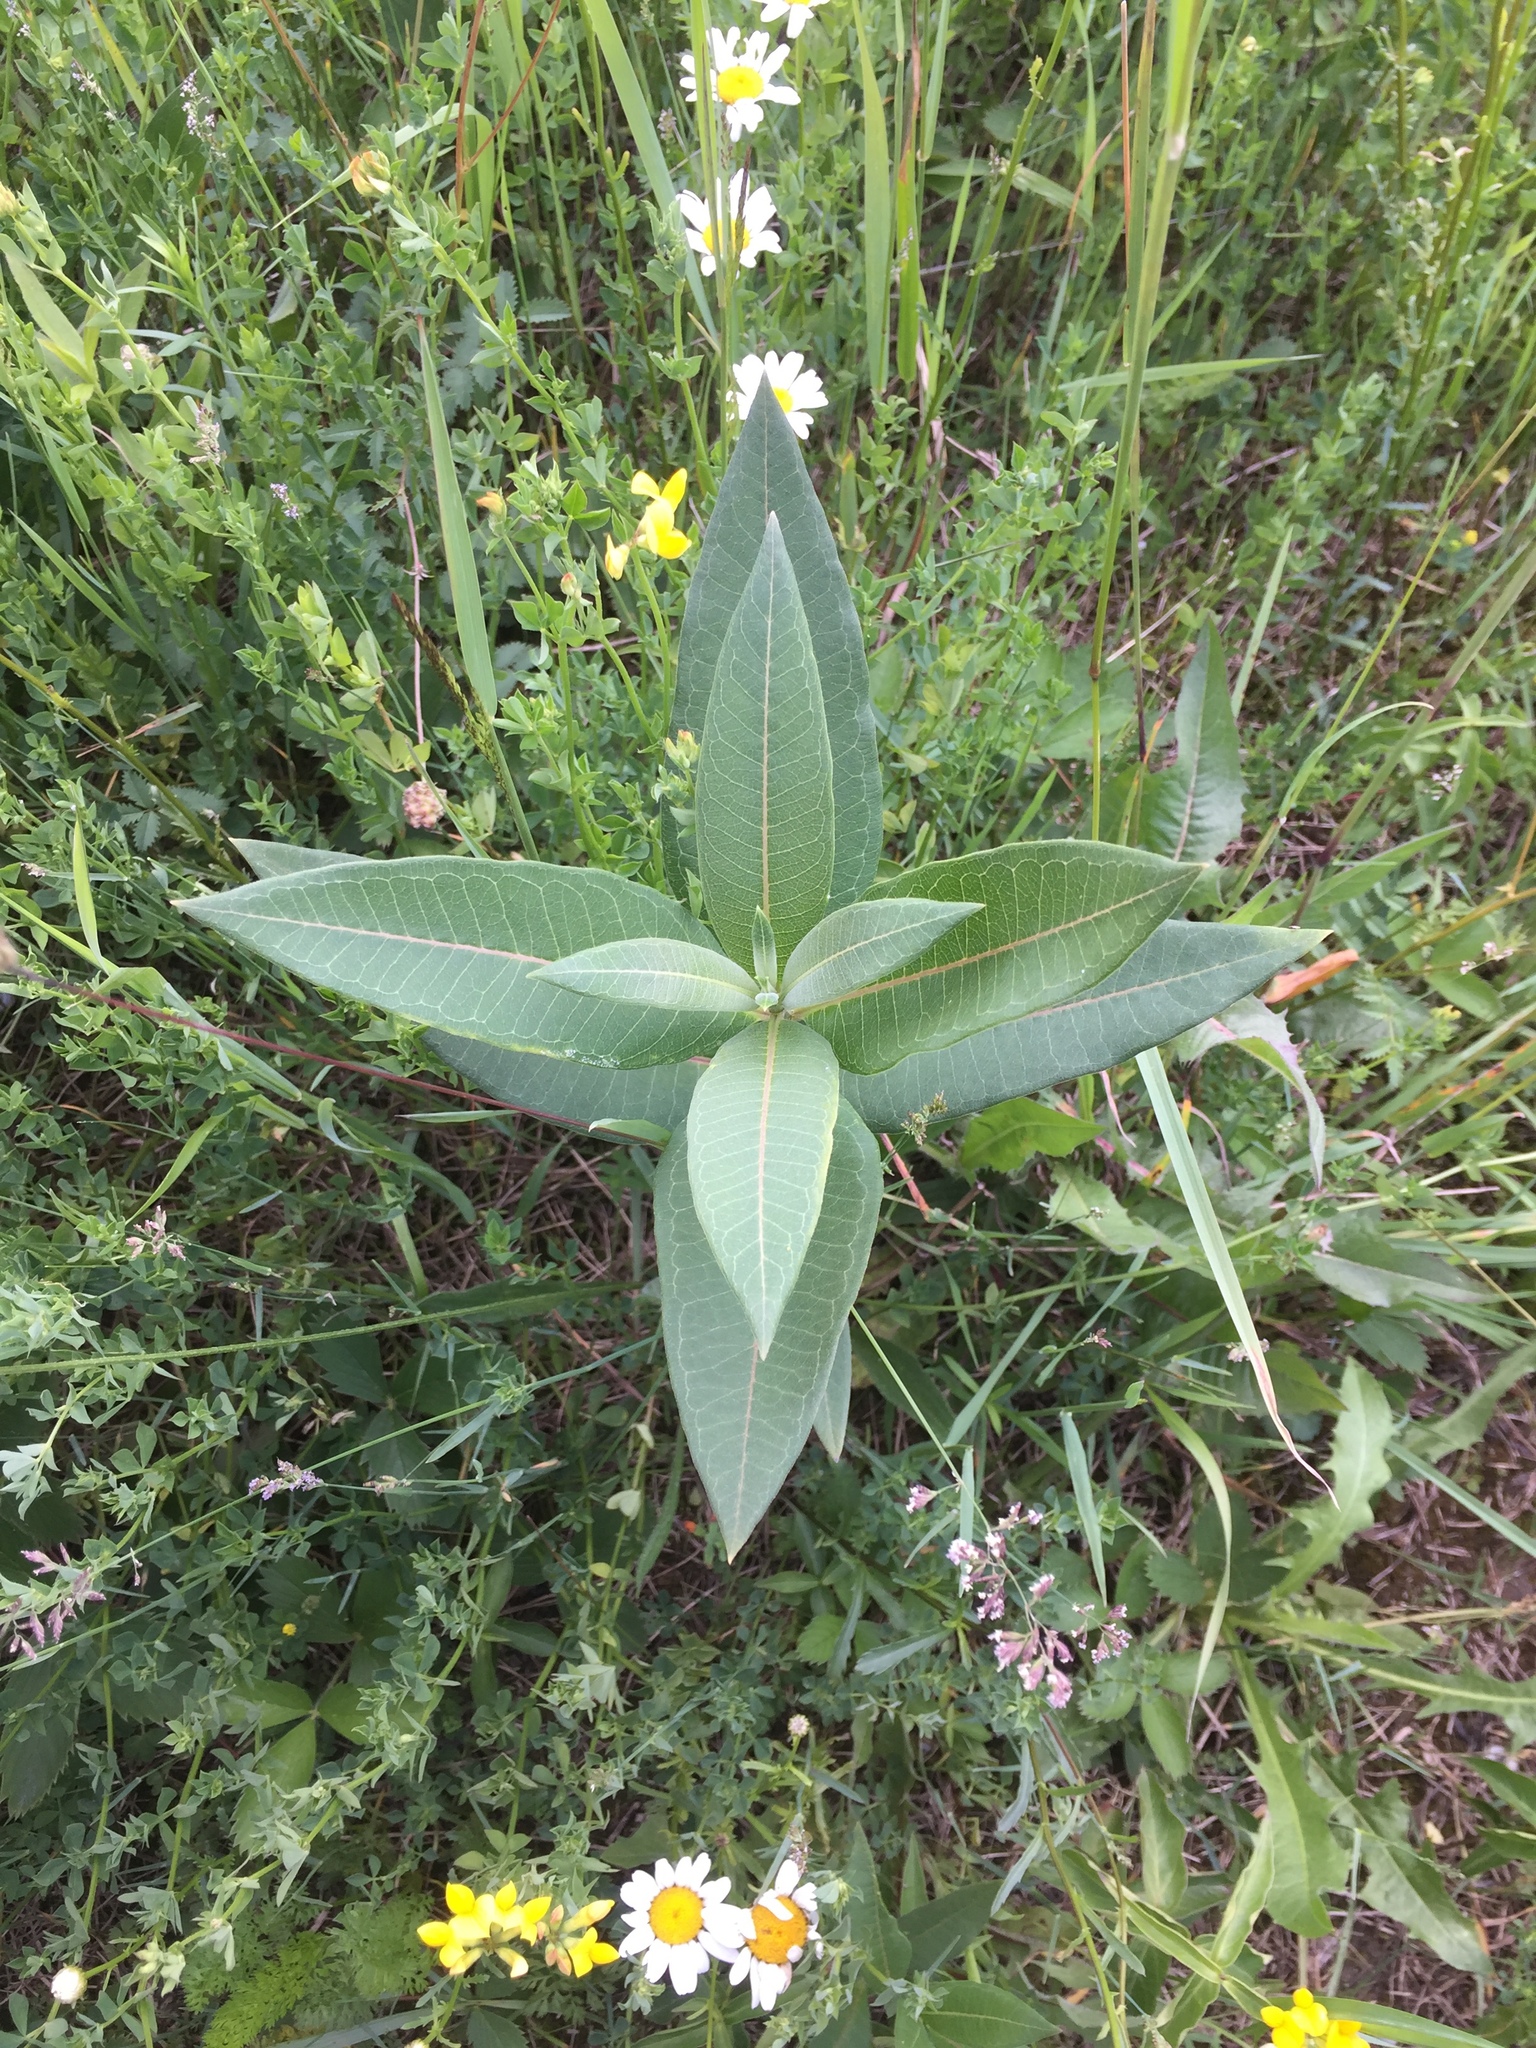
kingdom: Plantae
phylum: Tracheophyta
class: Magnoliopsida
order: Gentianales
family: Apocynaceae
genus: Asclepias
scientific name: Asclepias syriaca
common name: Common milkweed
